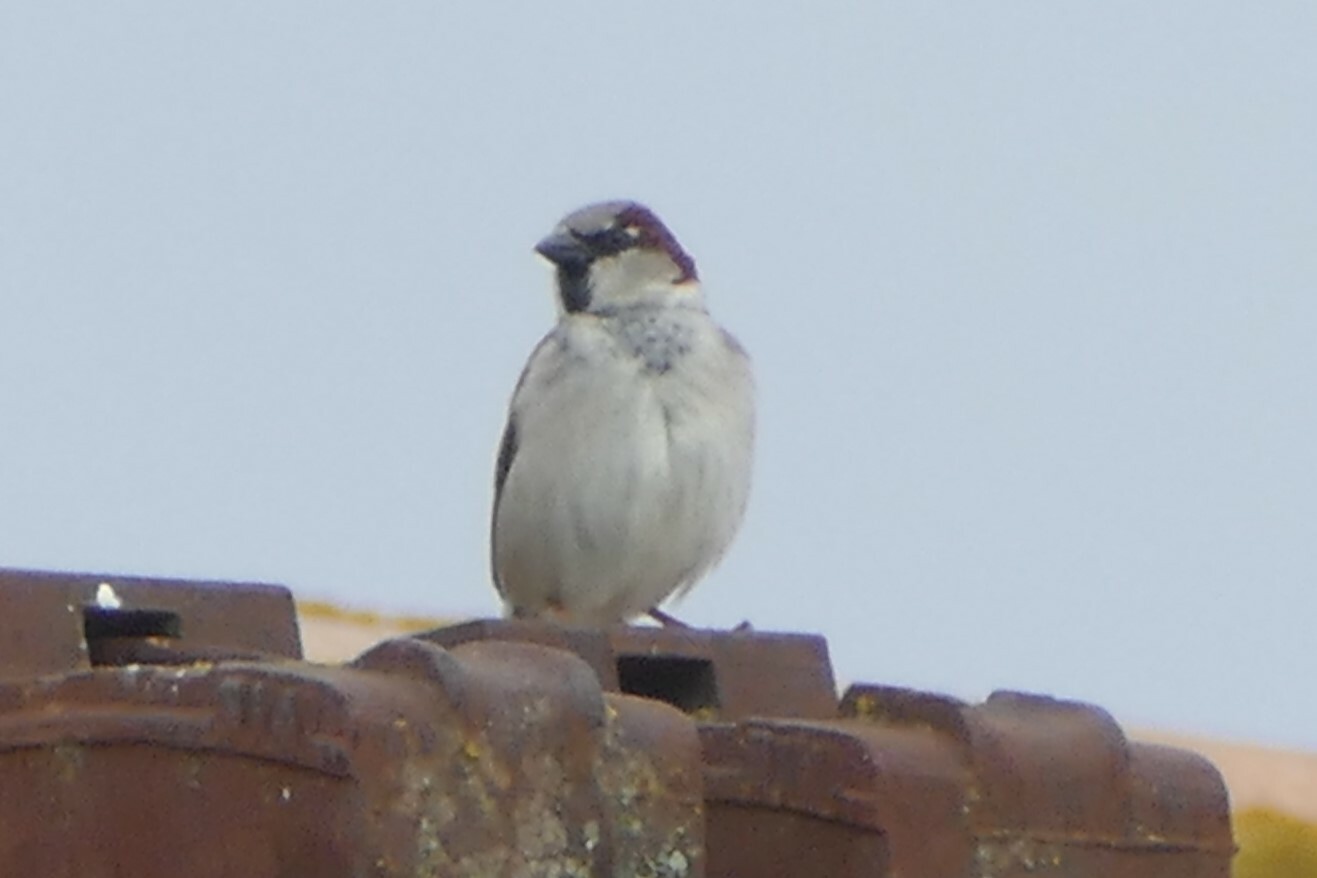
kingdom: Animalia
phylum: Chordata
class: Aves
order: Passeriformes
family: Passeridae
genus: Passer
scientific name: Passer domesticus
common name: House sparrow
